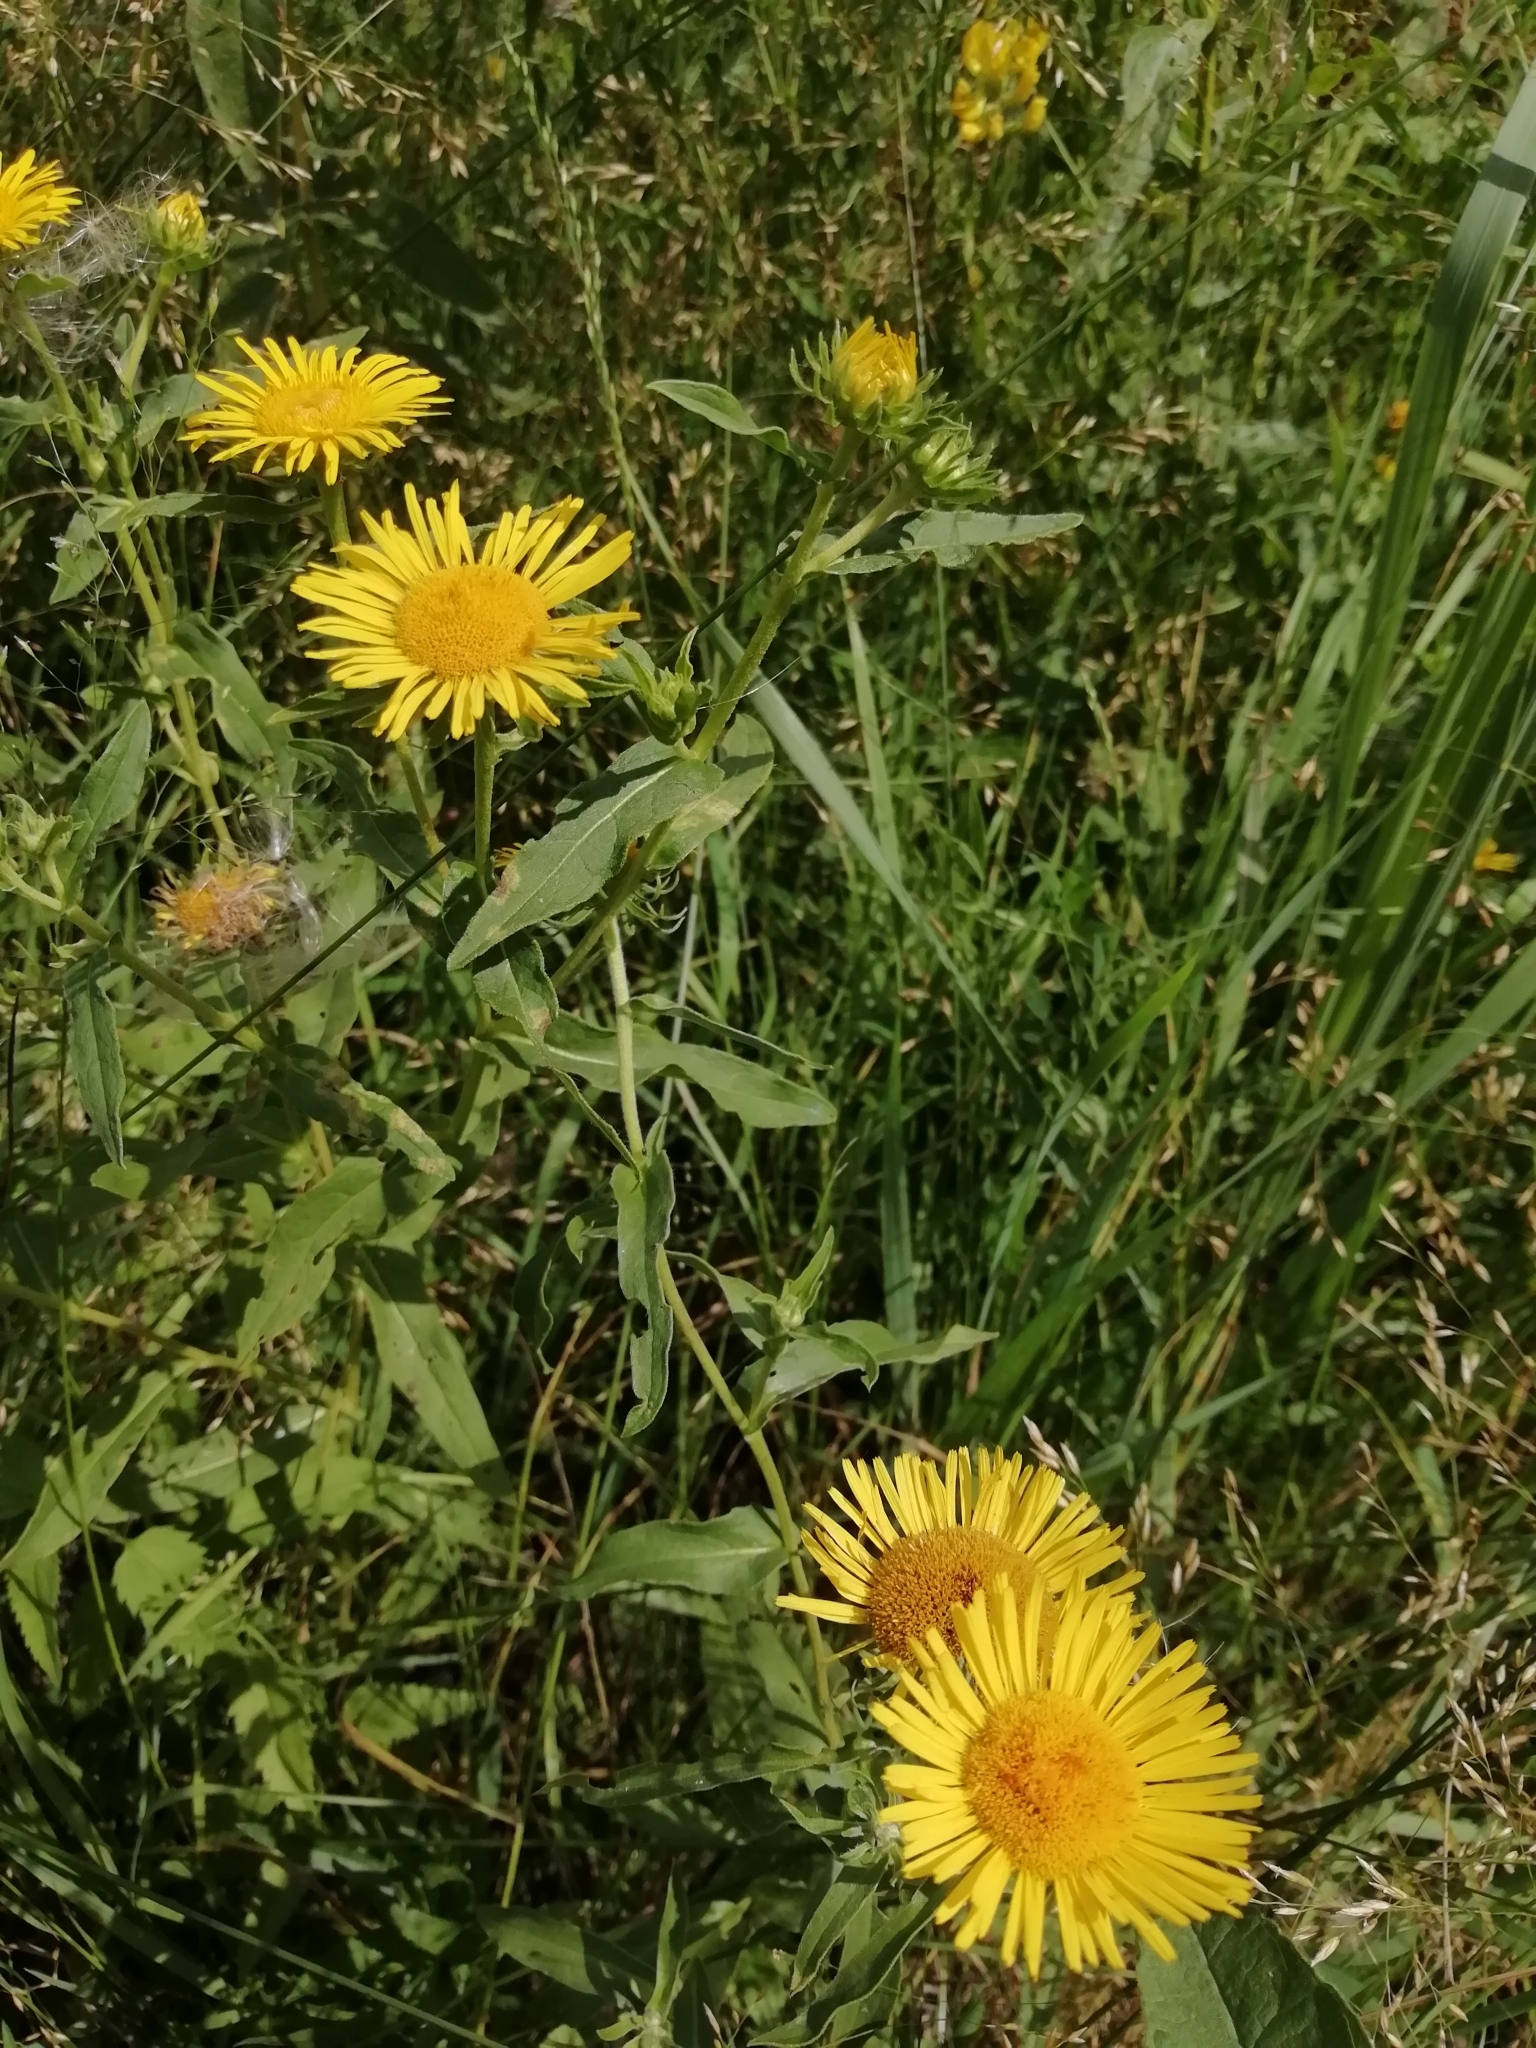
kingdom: Plantae
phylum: Tracheophyta
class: Magnoliopsida
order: Asterales
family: Asteraceae
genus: Pentanema
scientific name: Pentanema britannicum
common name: British elecampane
